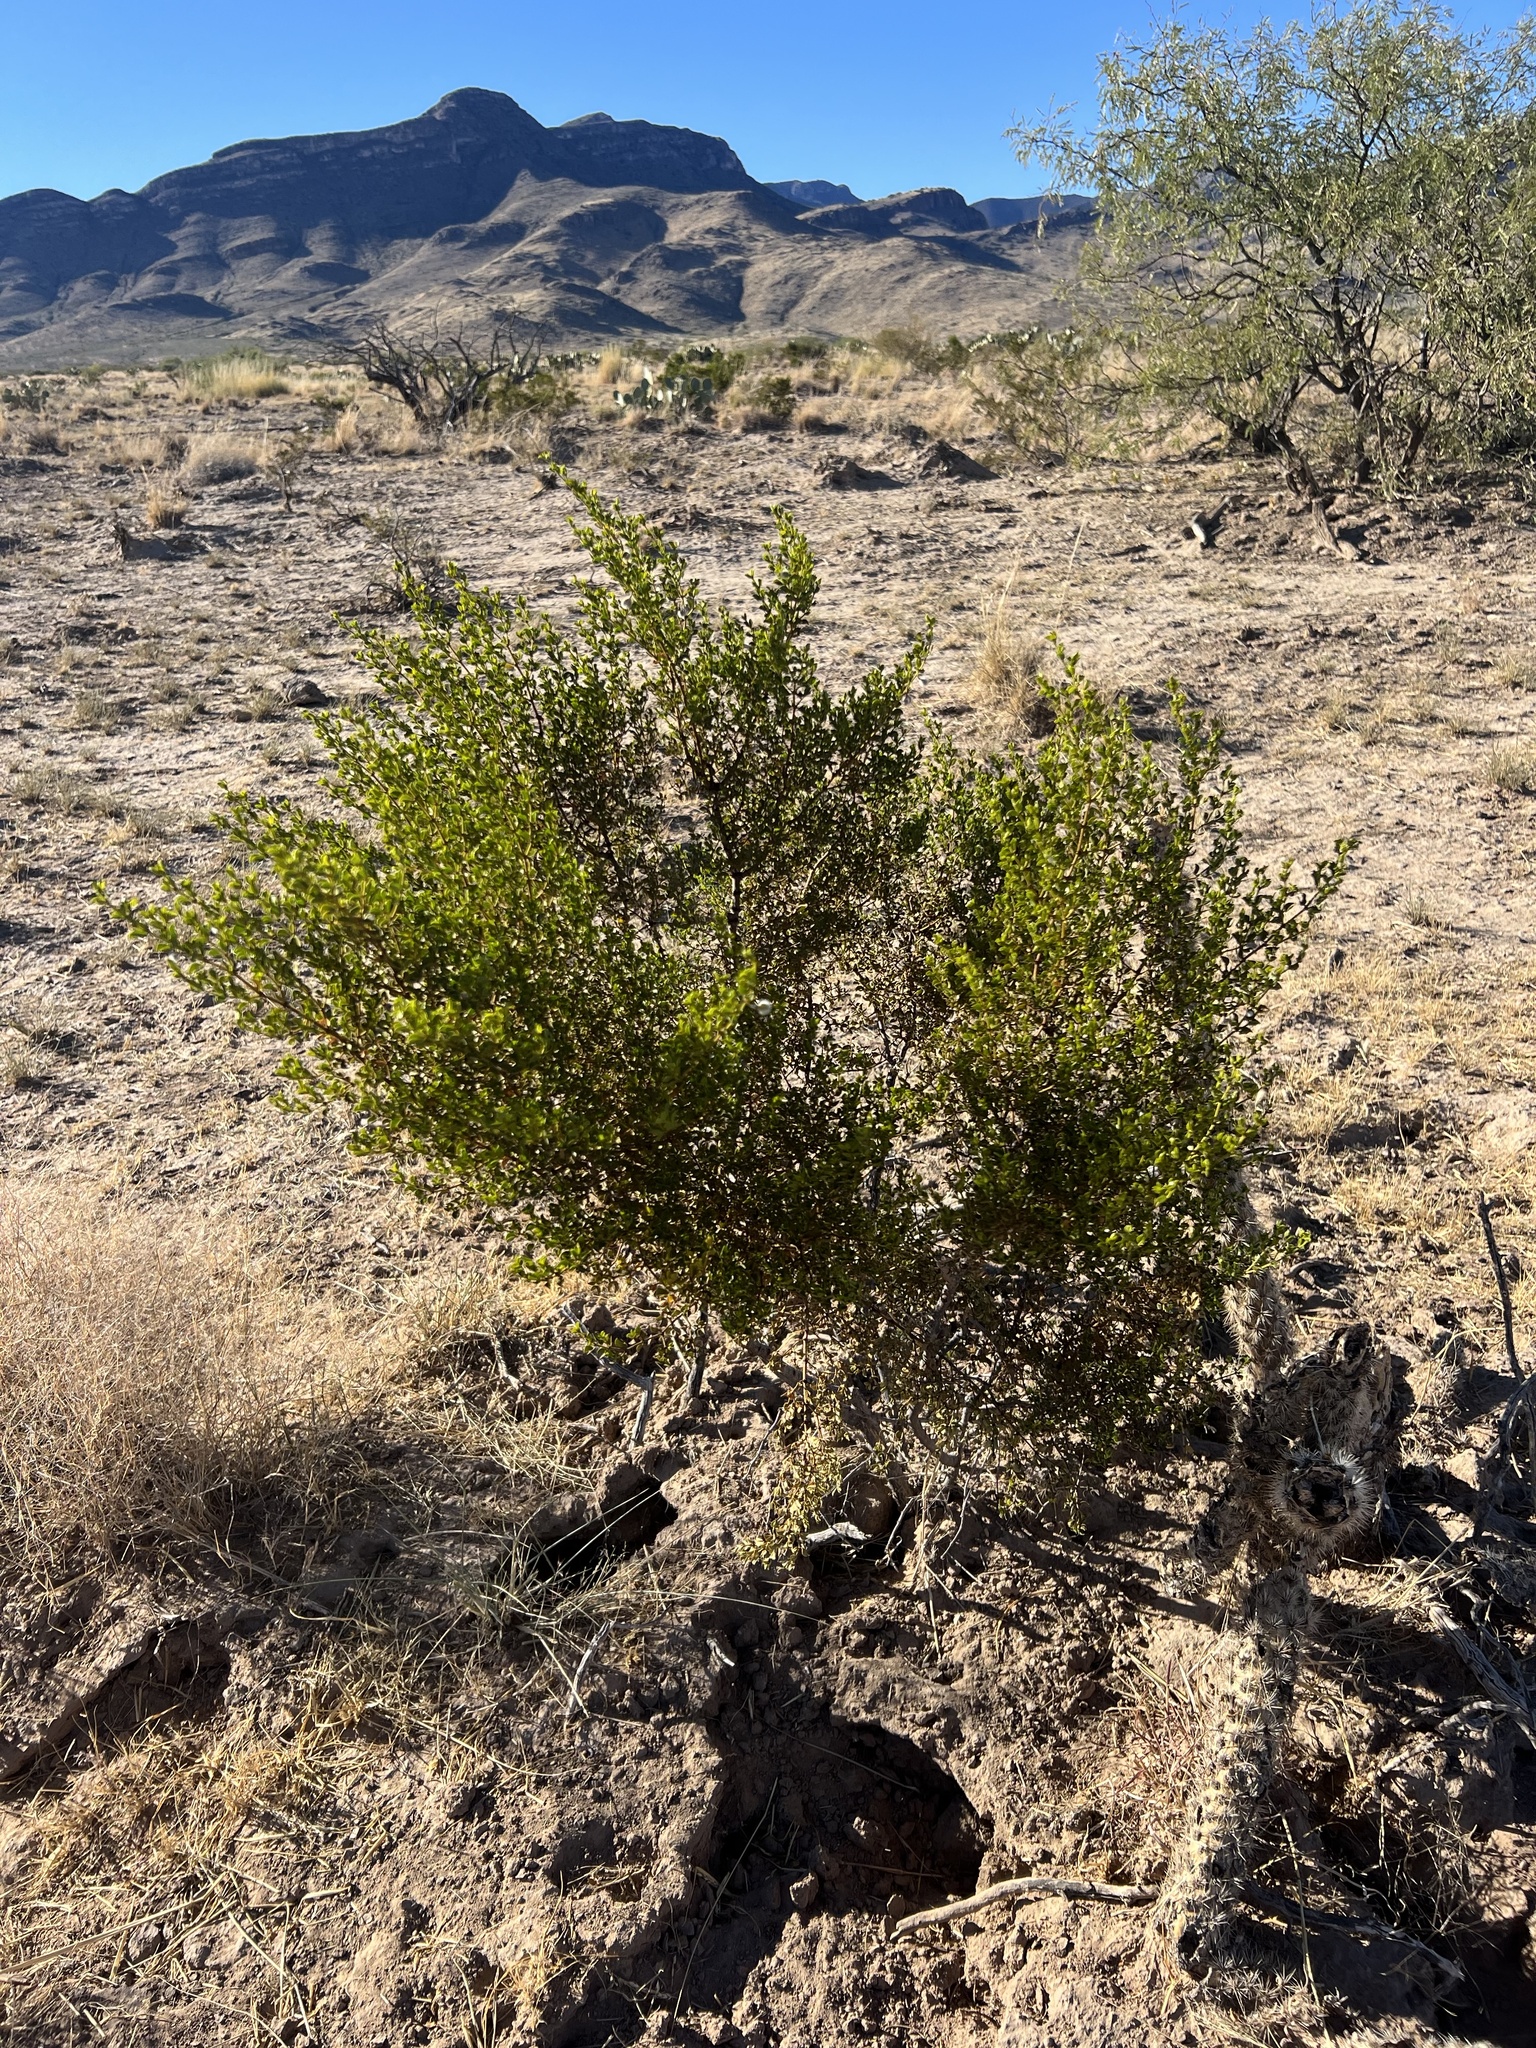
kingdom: Plantae
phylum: Tracheophyta
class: Magnoliopsida
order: Zygophyllales
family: Zygophyllaceae
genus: Larrea
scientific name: Larrea tridentata
